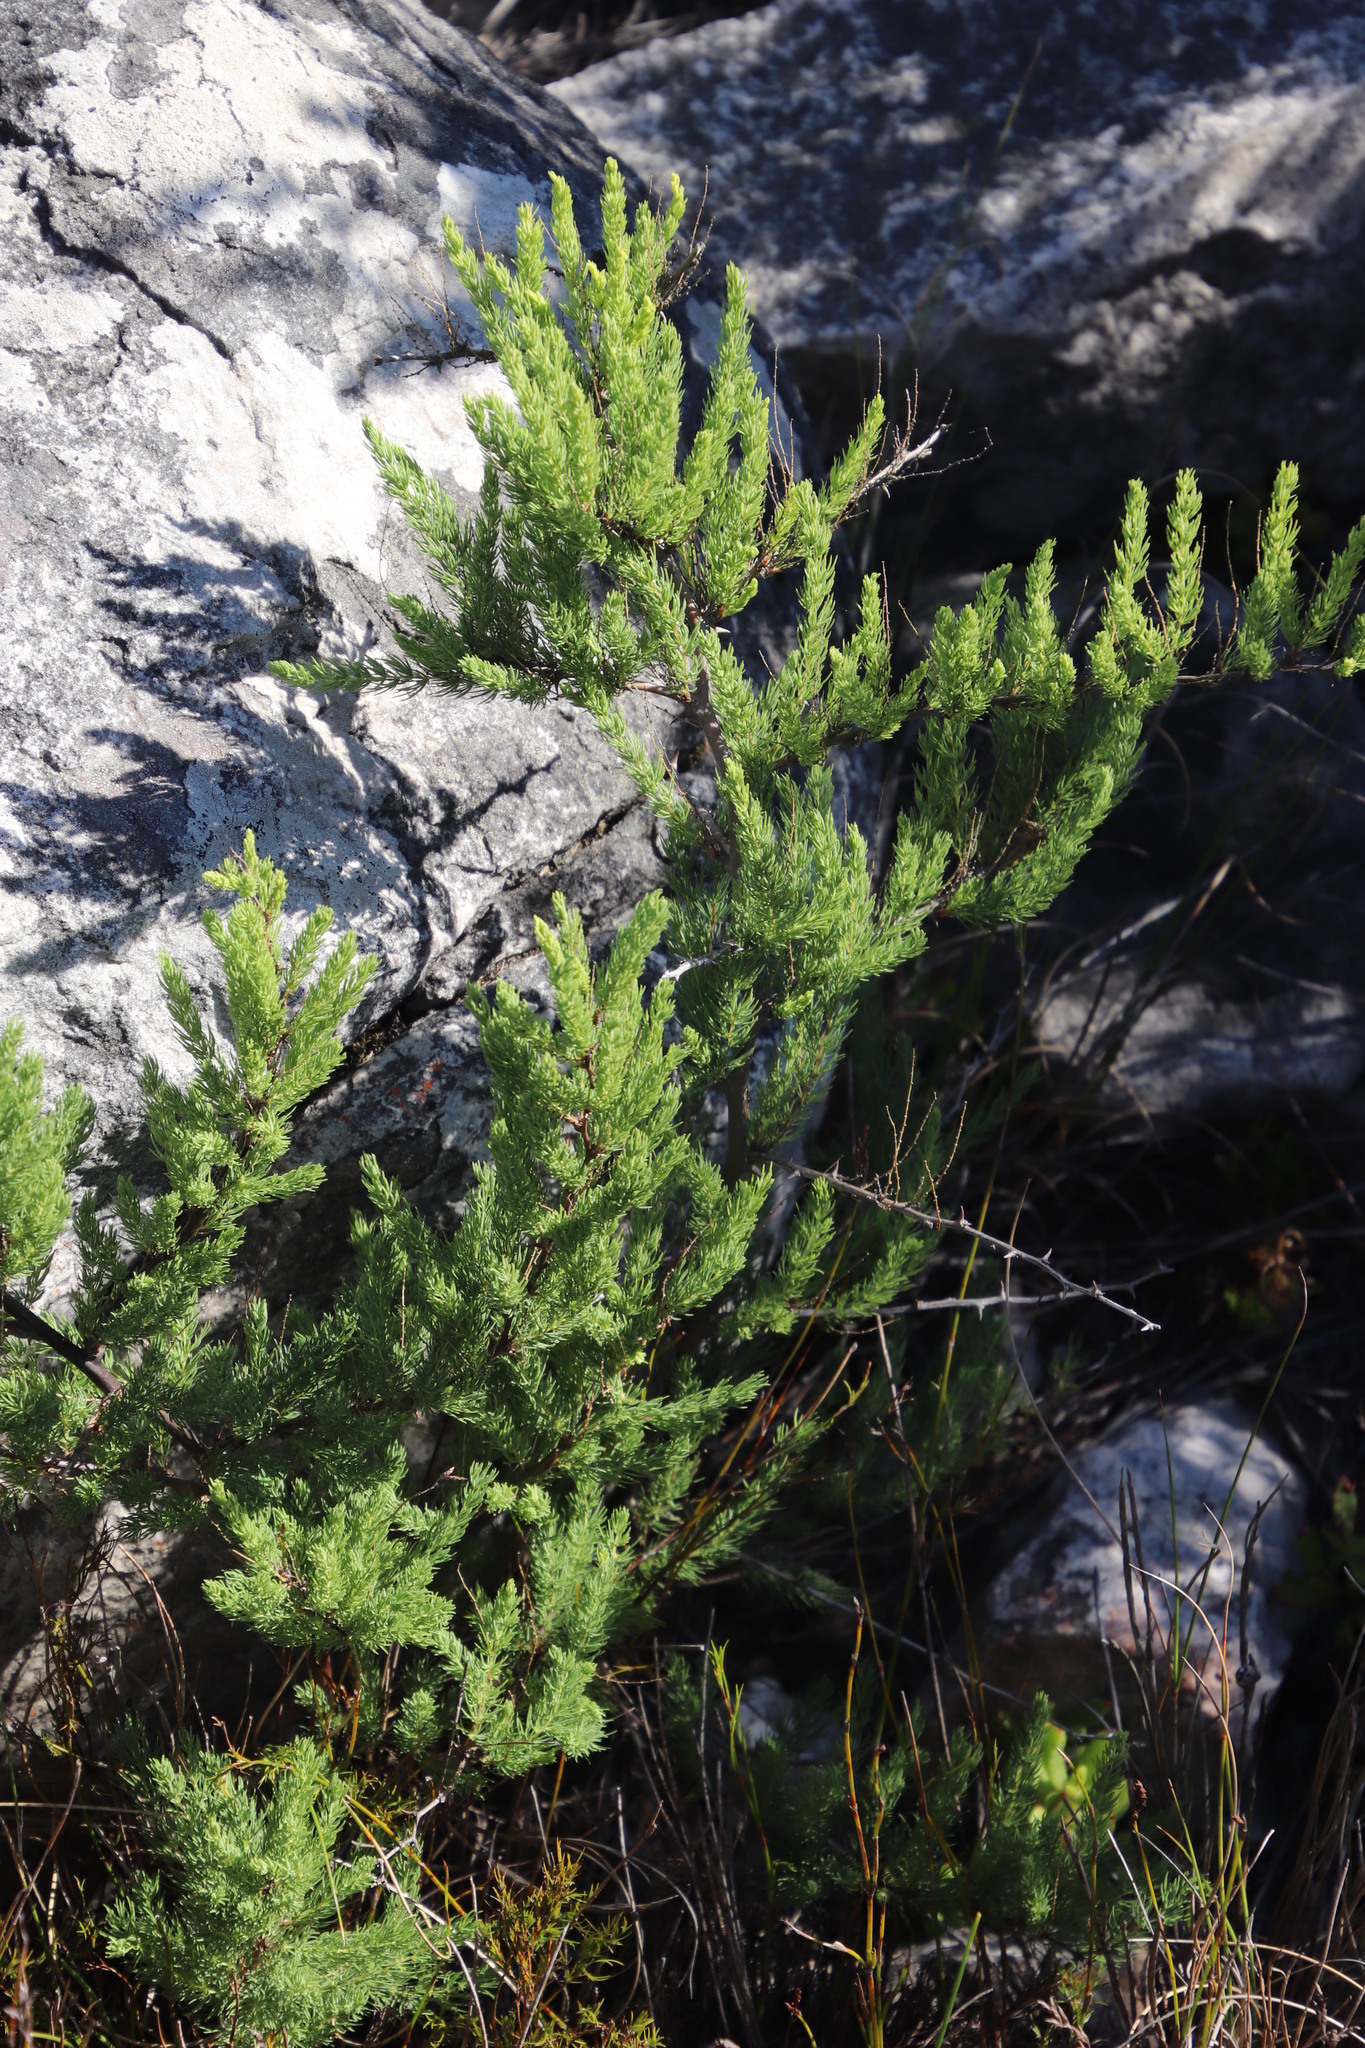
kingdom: Plantae
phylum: Tracheophyta
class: Liliopsida
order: Asparagales
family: Asparagaceae
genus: Asparagus
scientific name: Asparagus rubicundus
